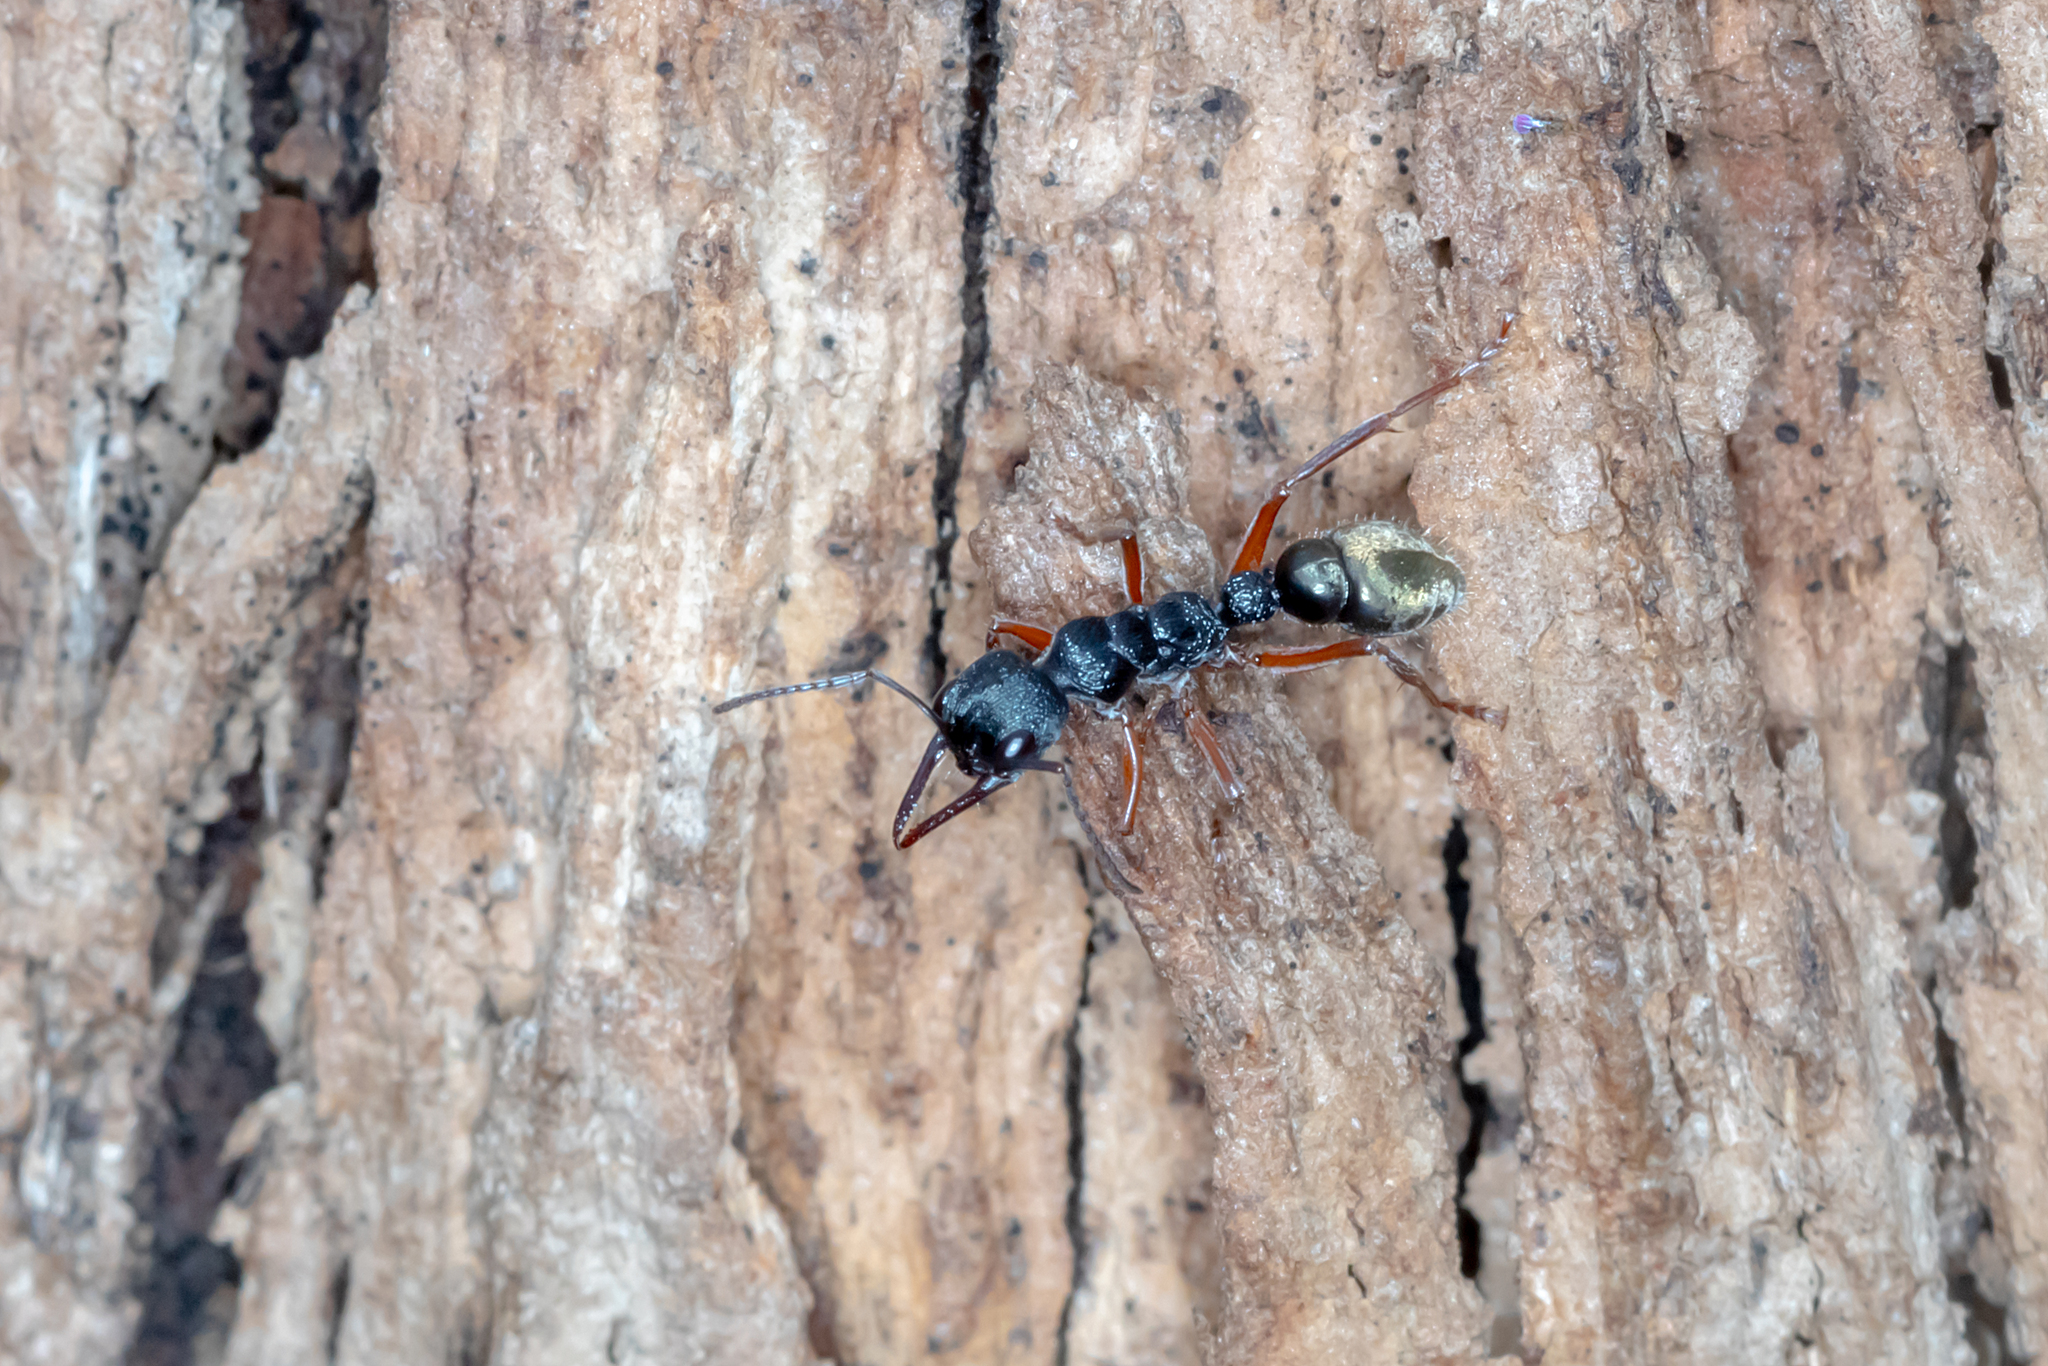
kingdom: Animalia
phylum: Arthropoda
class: Insecta
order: Hymenoptera
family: Formicidae
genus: Myrmecia
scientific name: Myrmecia fulvipes
